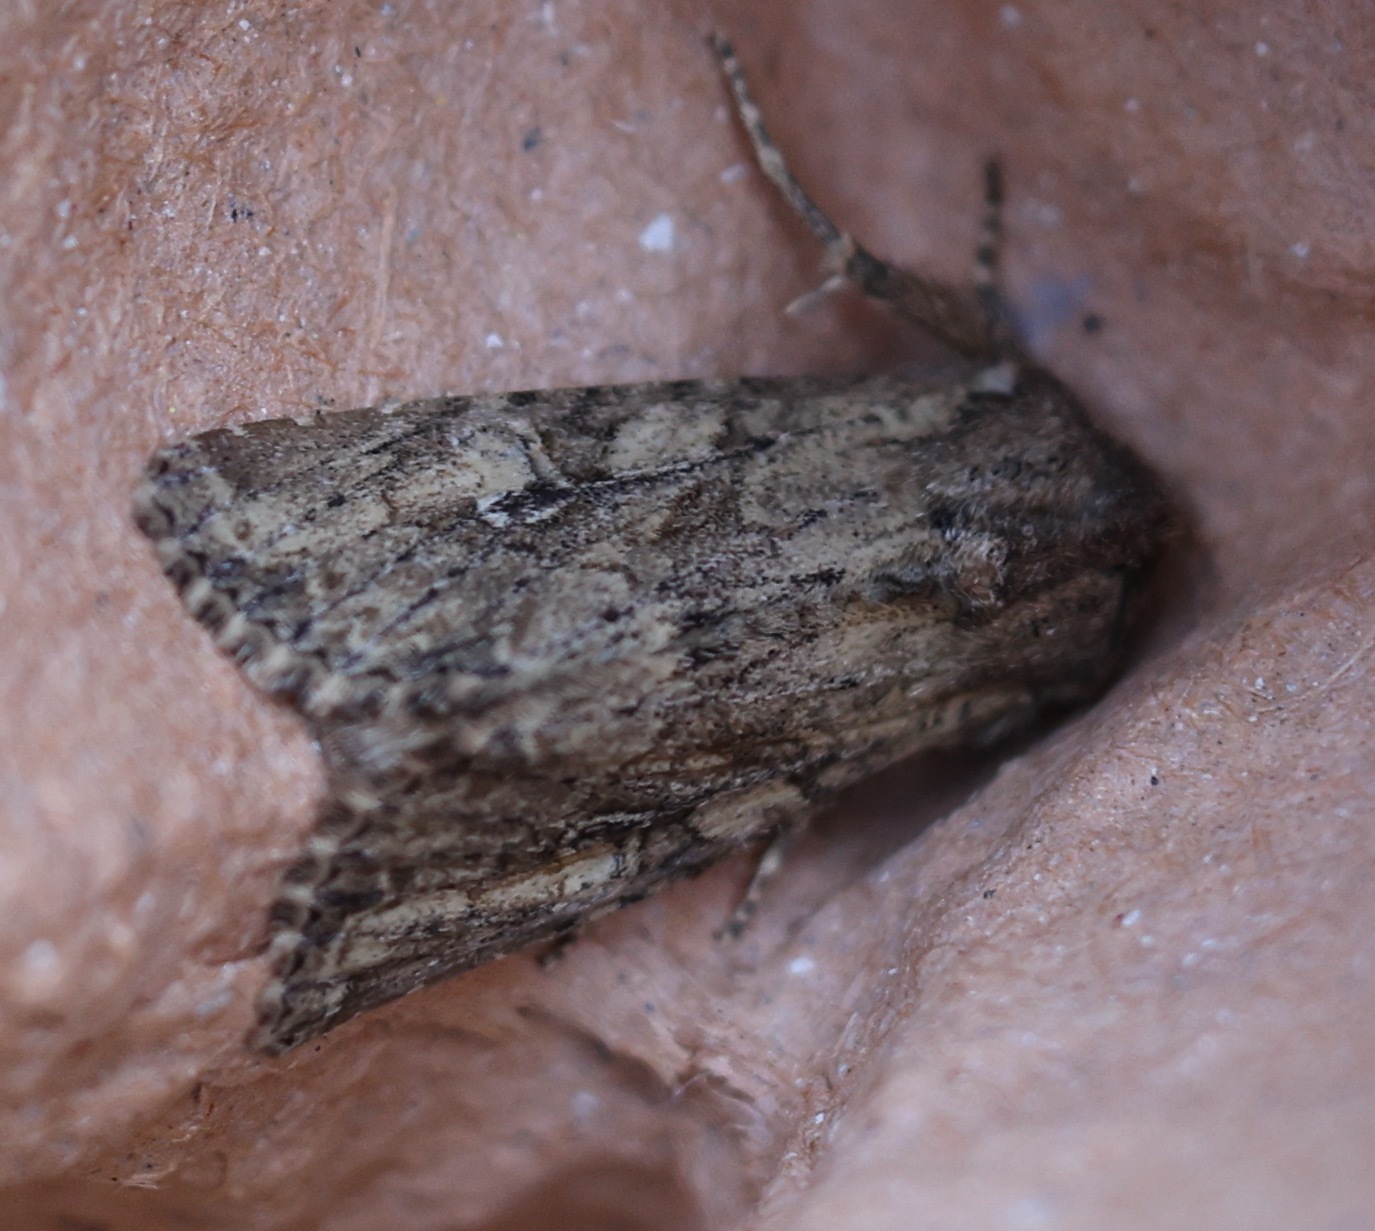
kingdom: Animalia
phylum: Arthropoda
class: Insecta
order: Lepidoptera
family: Noctuidae
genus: Apamea
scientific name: Apamea anceps
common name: Large nutmeg
